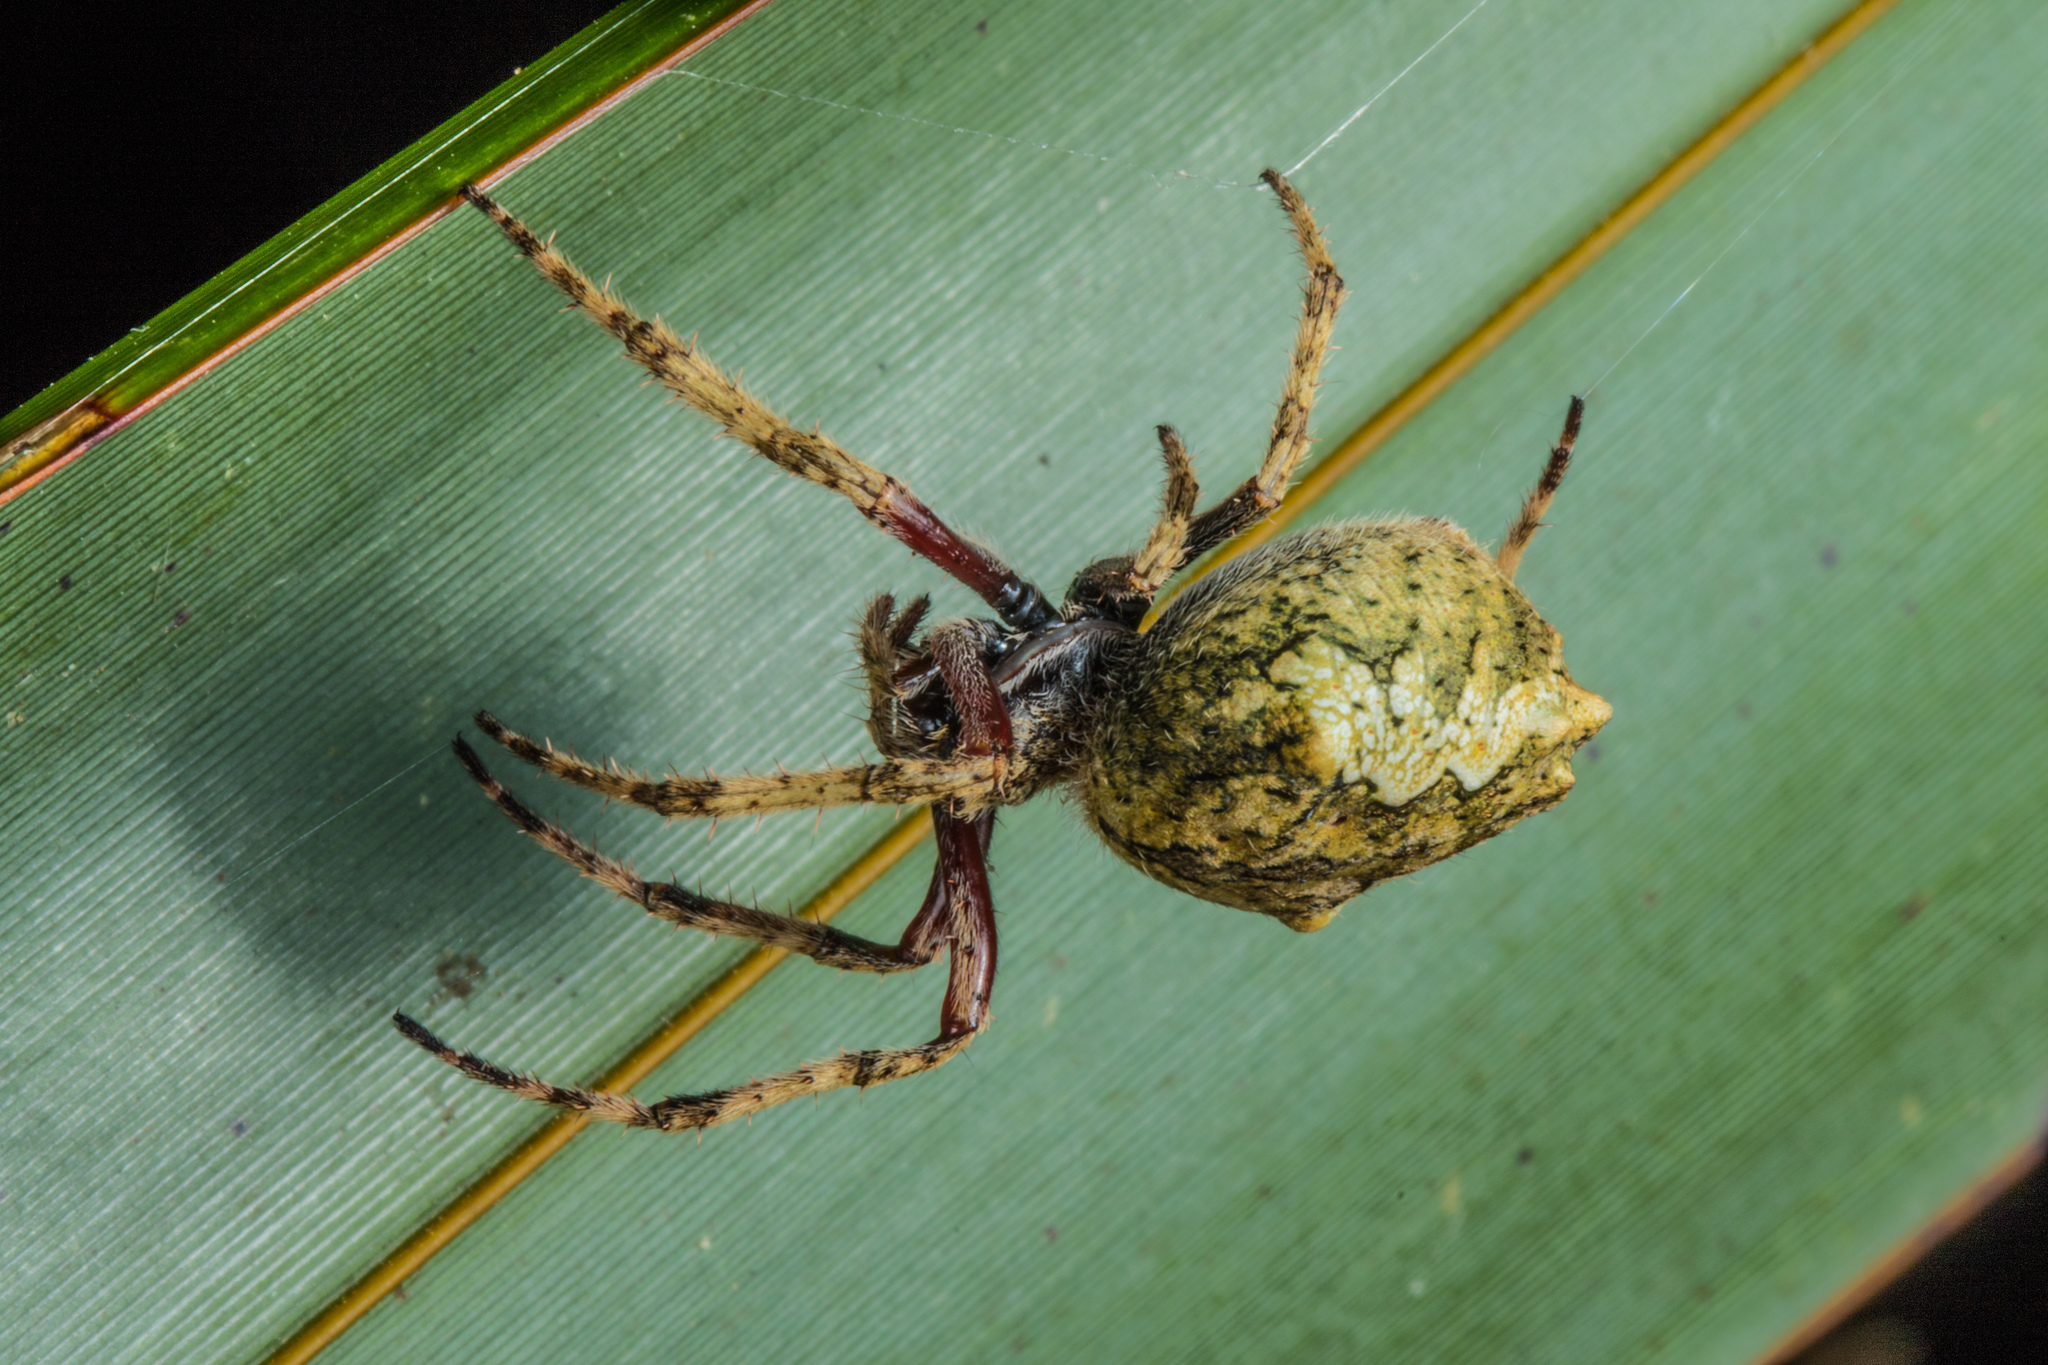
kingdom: Animalia
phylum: Arthropoda
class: Arachnida
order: Araneae
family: Araneidae
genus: Eriophora
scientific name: Eriophora pustulosa
